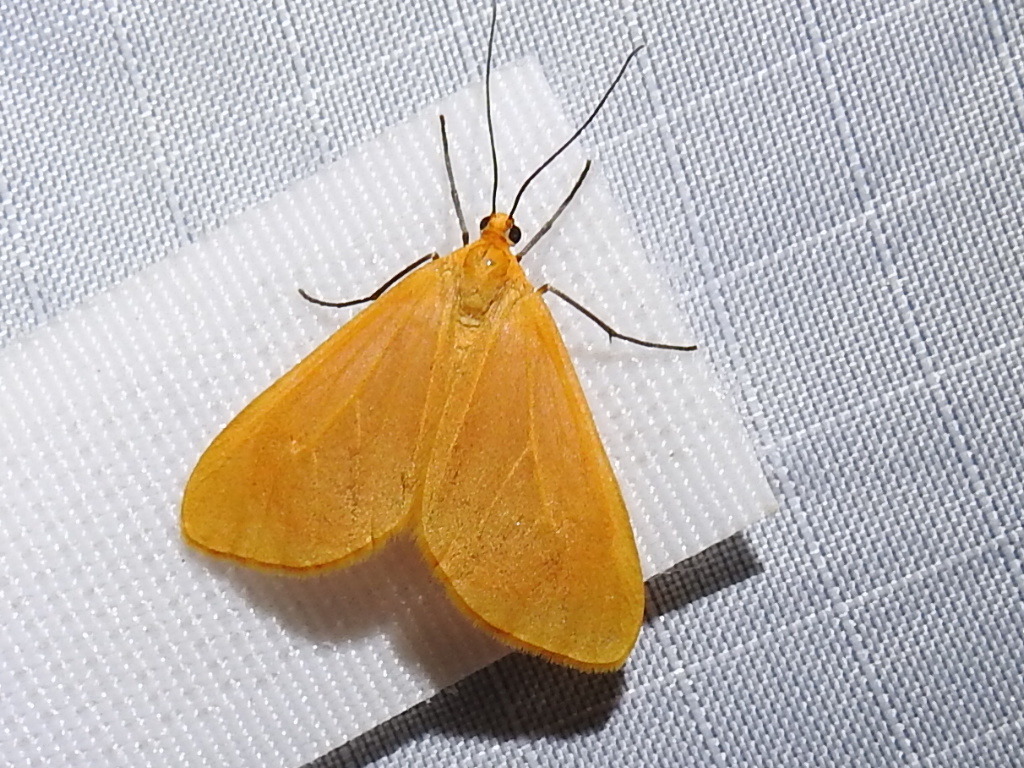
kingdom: Animalia
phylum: Arthropoda
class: Insecta
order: Lepidoptera
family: Geometridae
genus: Eubaphe
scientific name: Eubaphe unicolor
